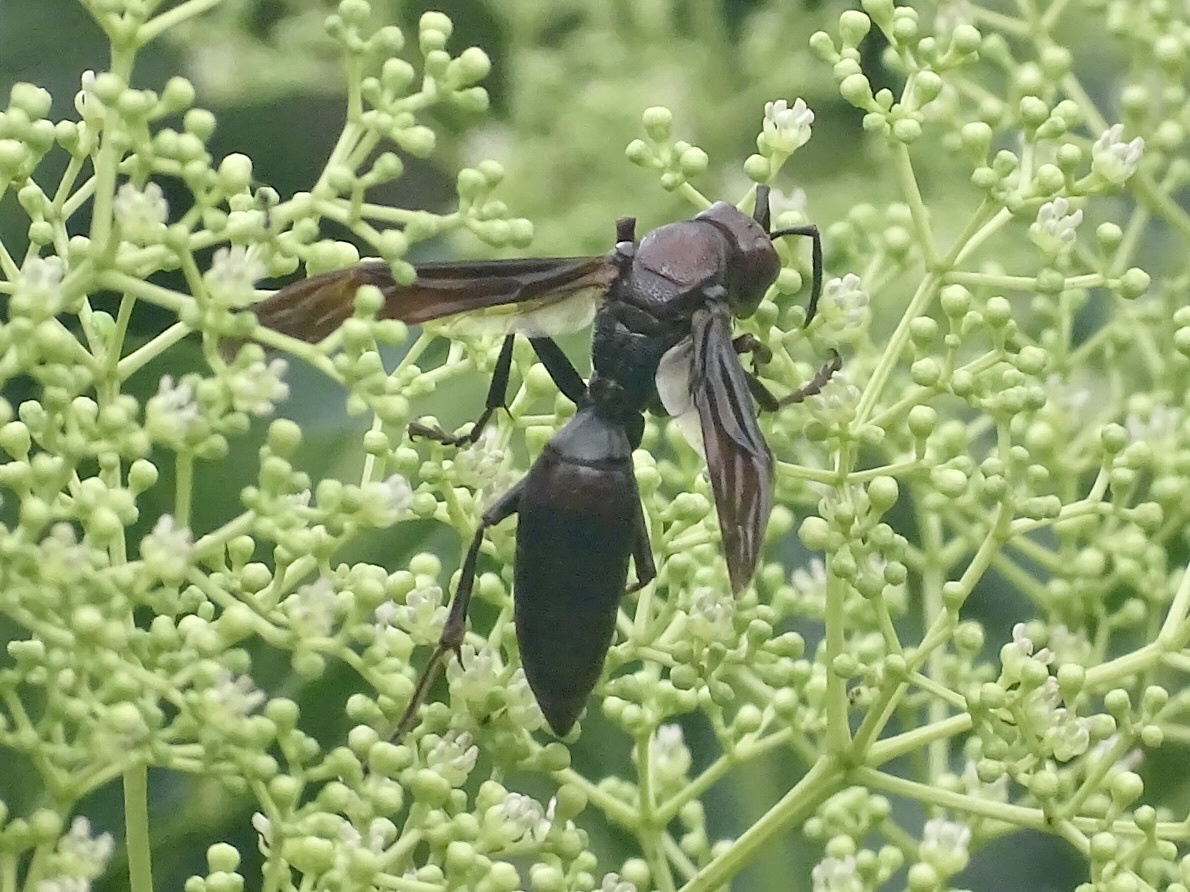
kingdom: Animalia
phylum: Arthropoda
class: Insecta
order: Hymenoptera
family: Eumenidae
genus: Polistes
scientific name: Polistes gigas
